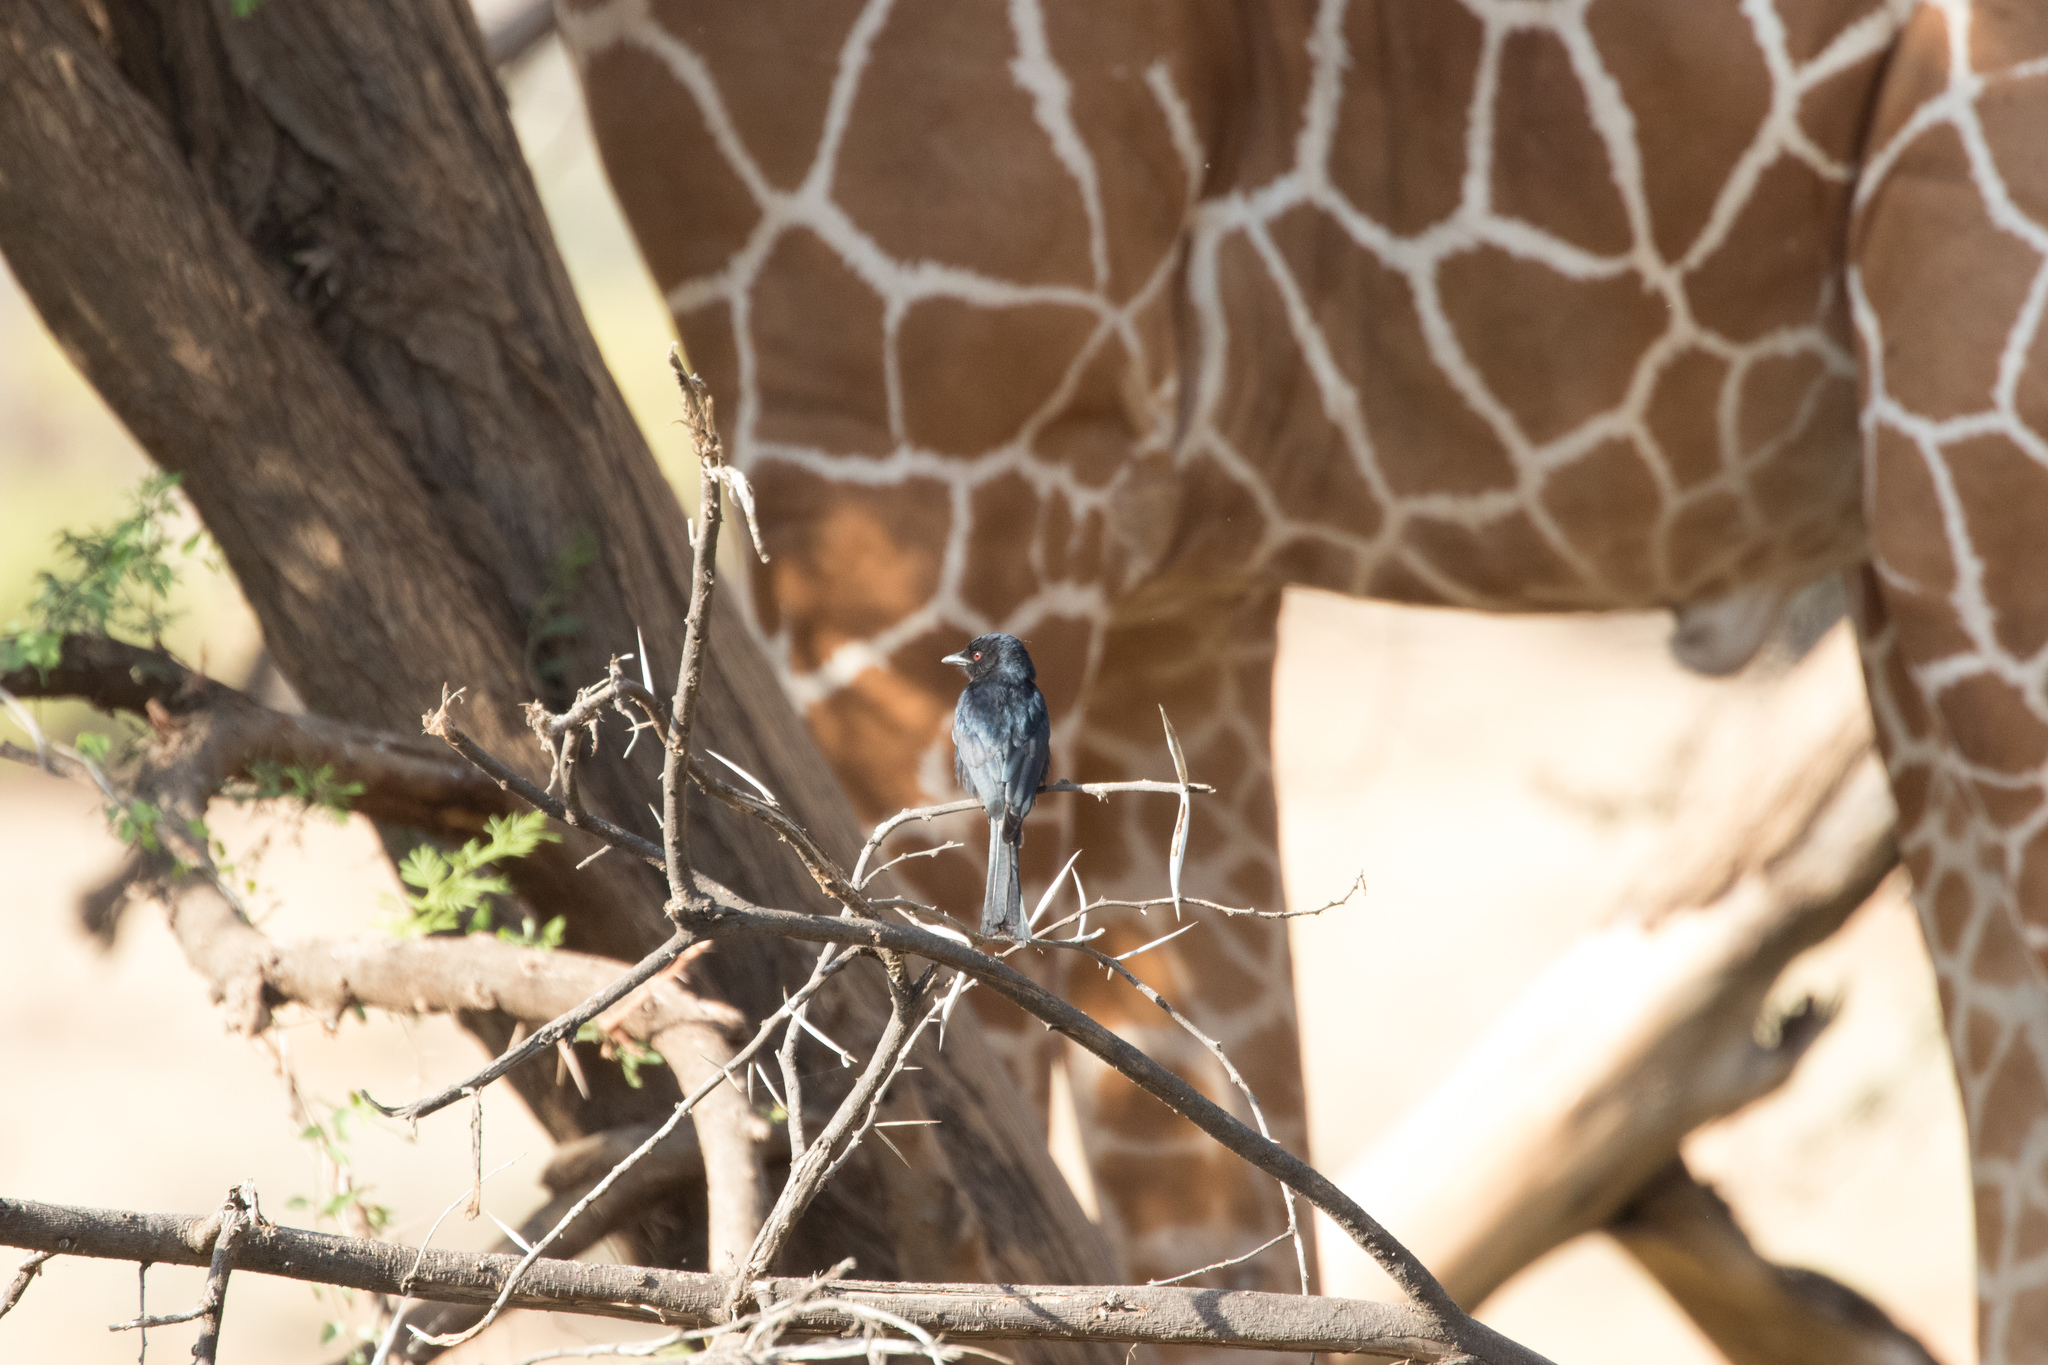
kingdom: Animalia
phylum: Chordata
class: Aves
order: Passeriformes
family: Dicruridae
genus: Dicrurus
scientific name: Dicrurus adsimilis
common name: Fork-tailed drongo
